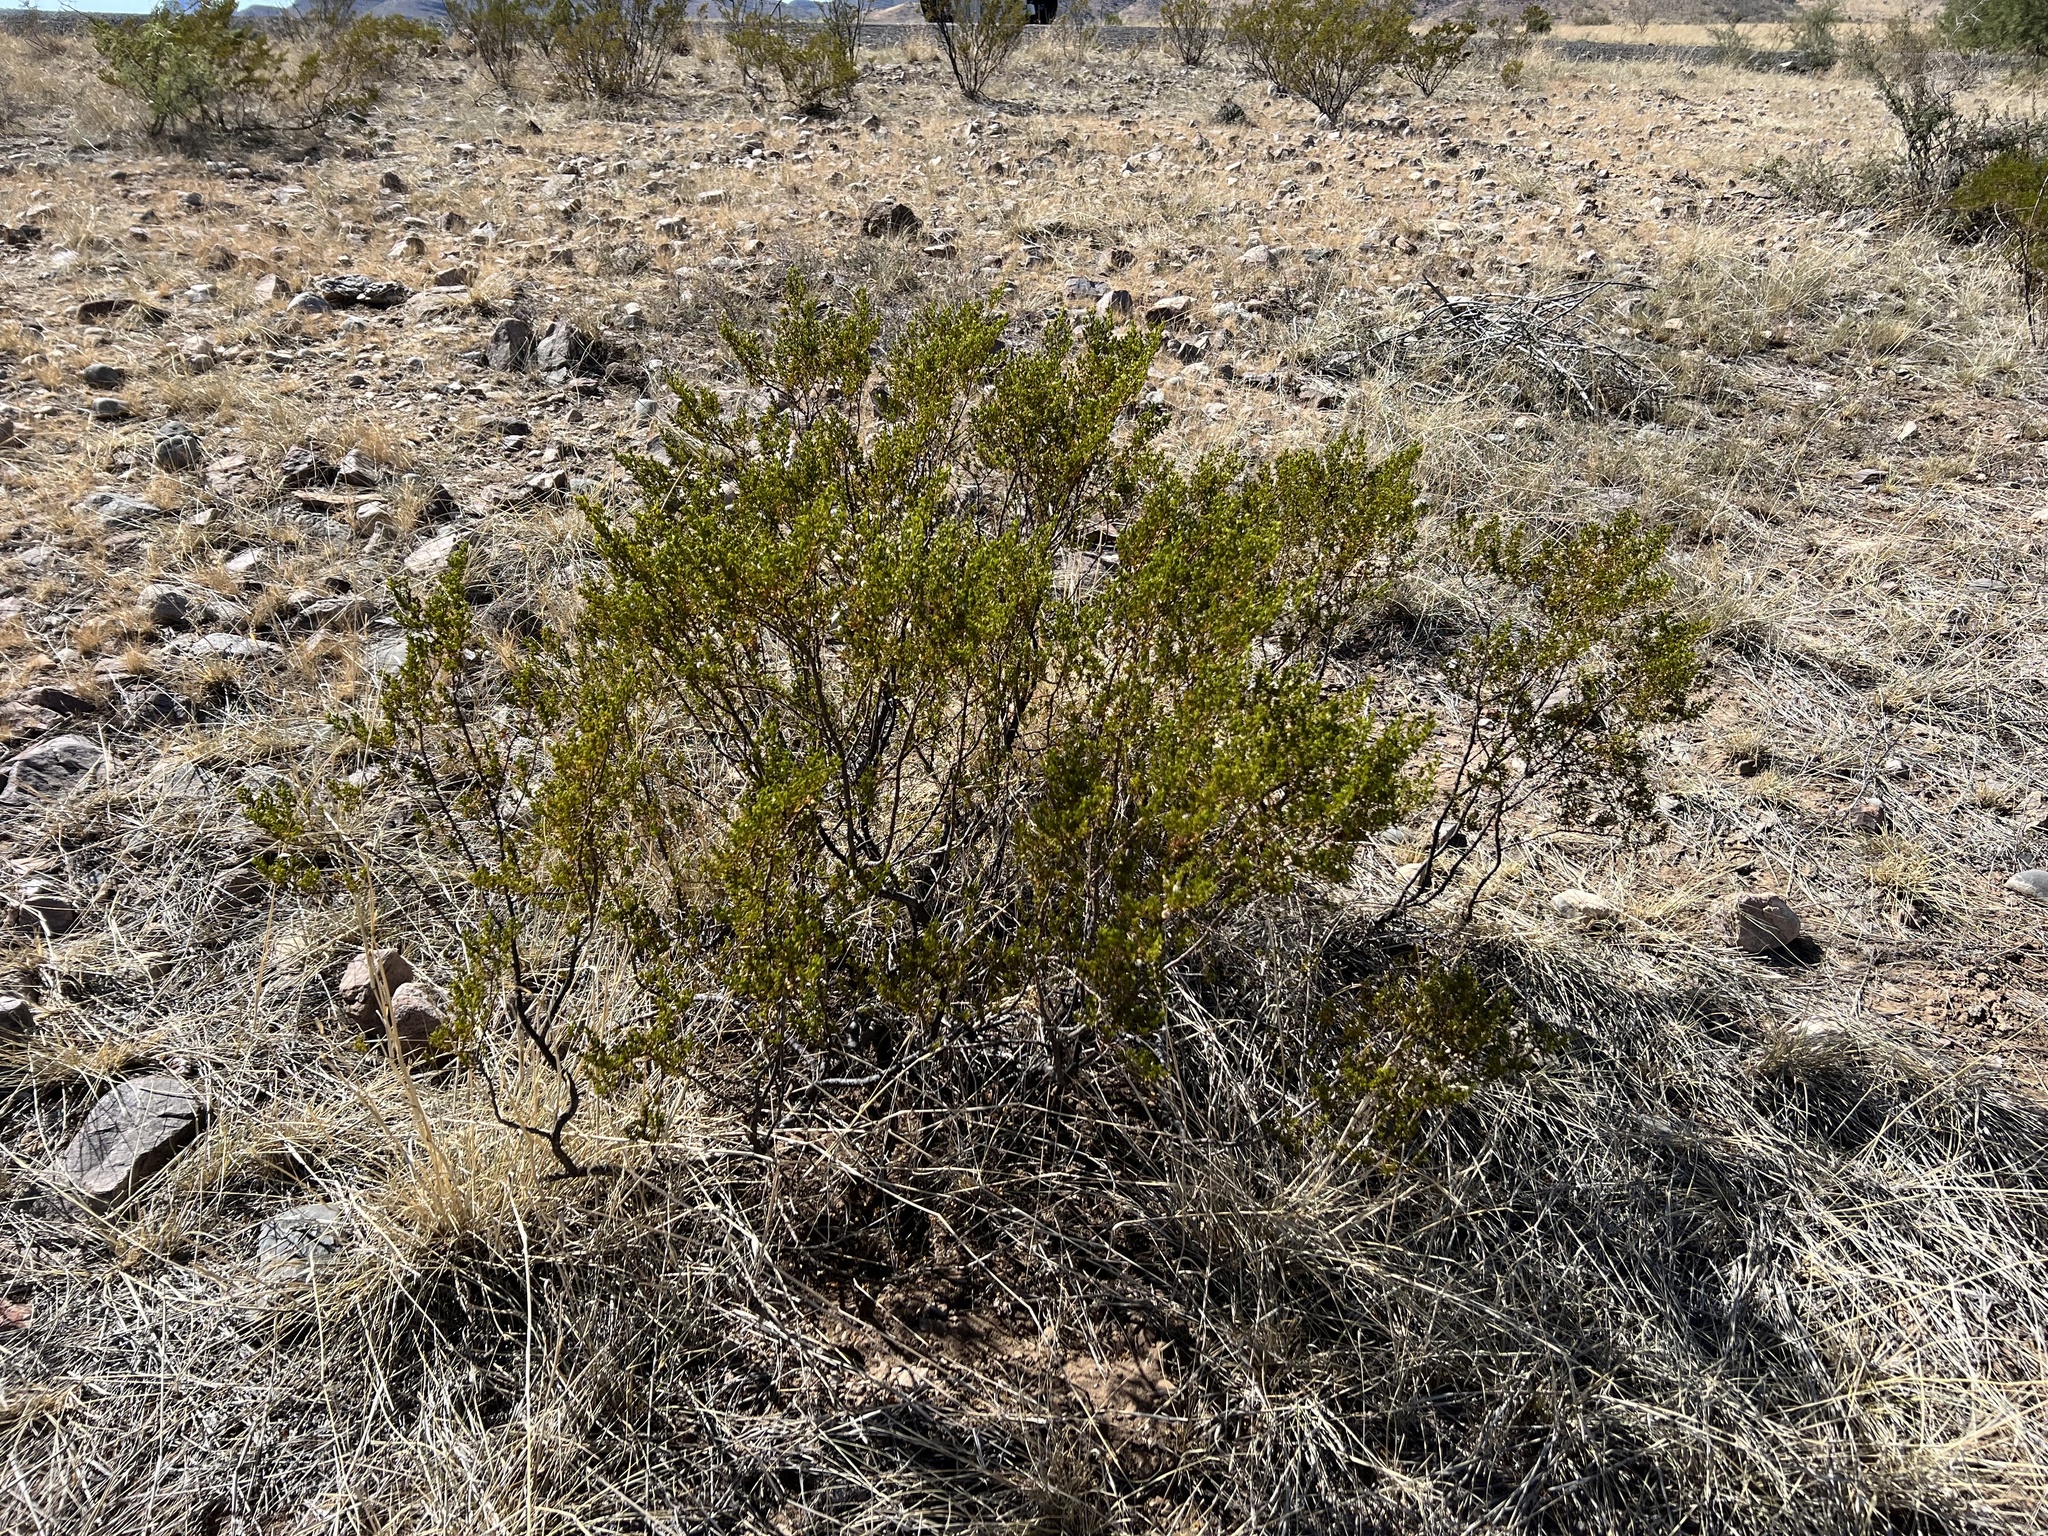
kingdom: Plantae
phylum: Tracheophyta
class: Magnoliopsida
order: Zygophyllales
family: Zygophyllaceae
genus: Larrea
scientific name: Larrea tridentata
